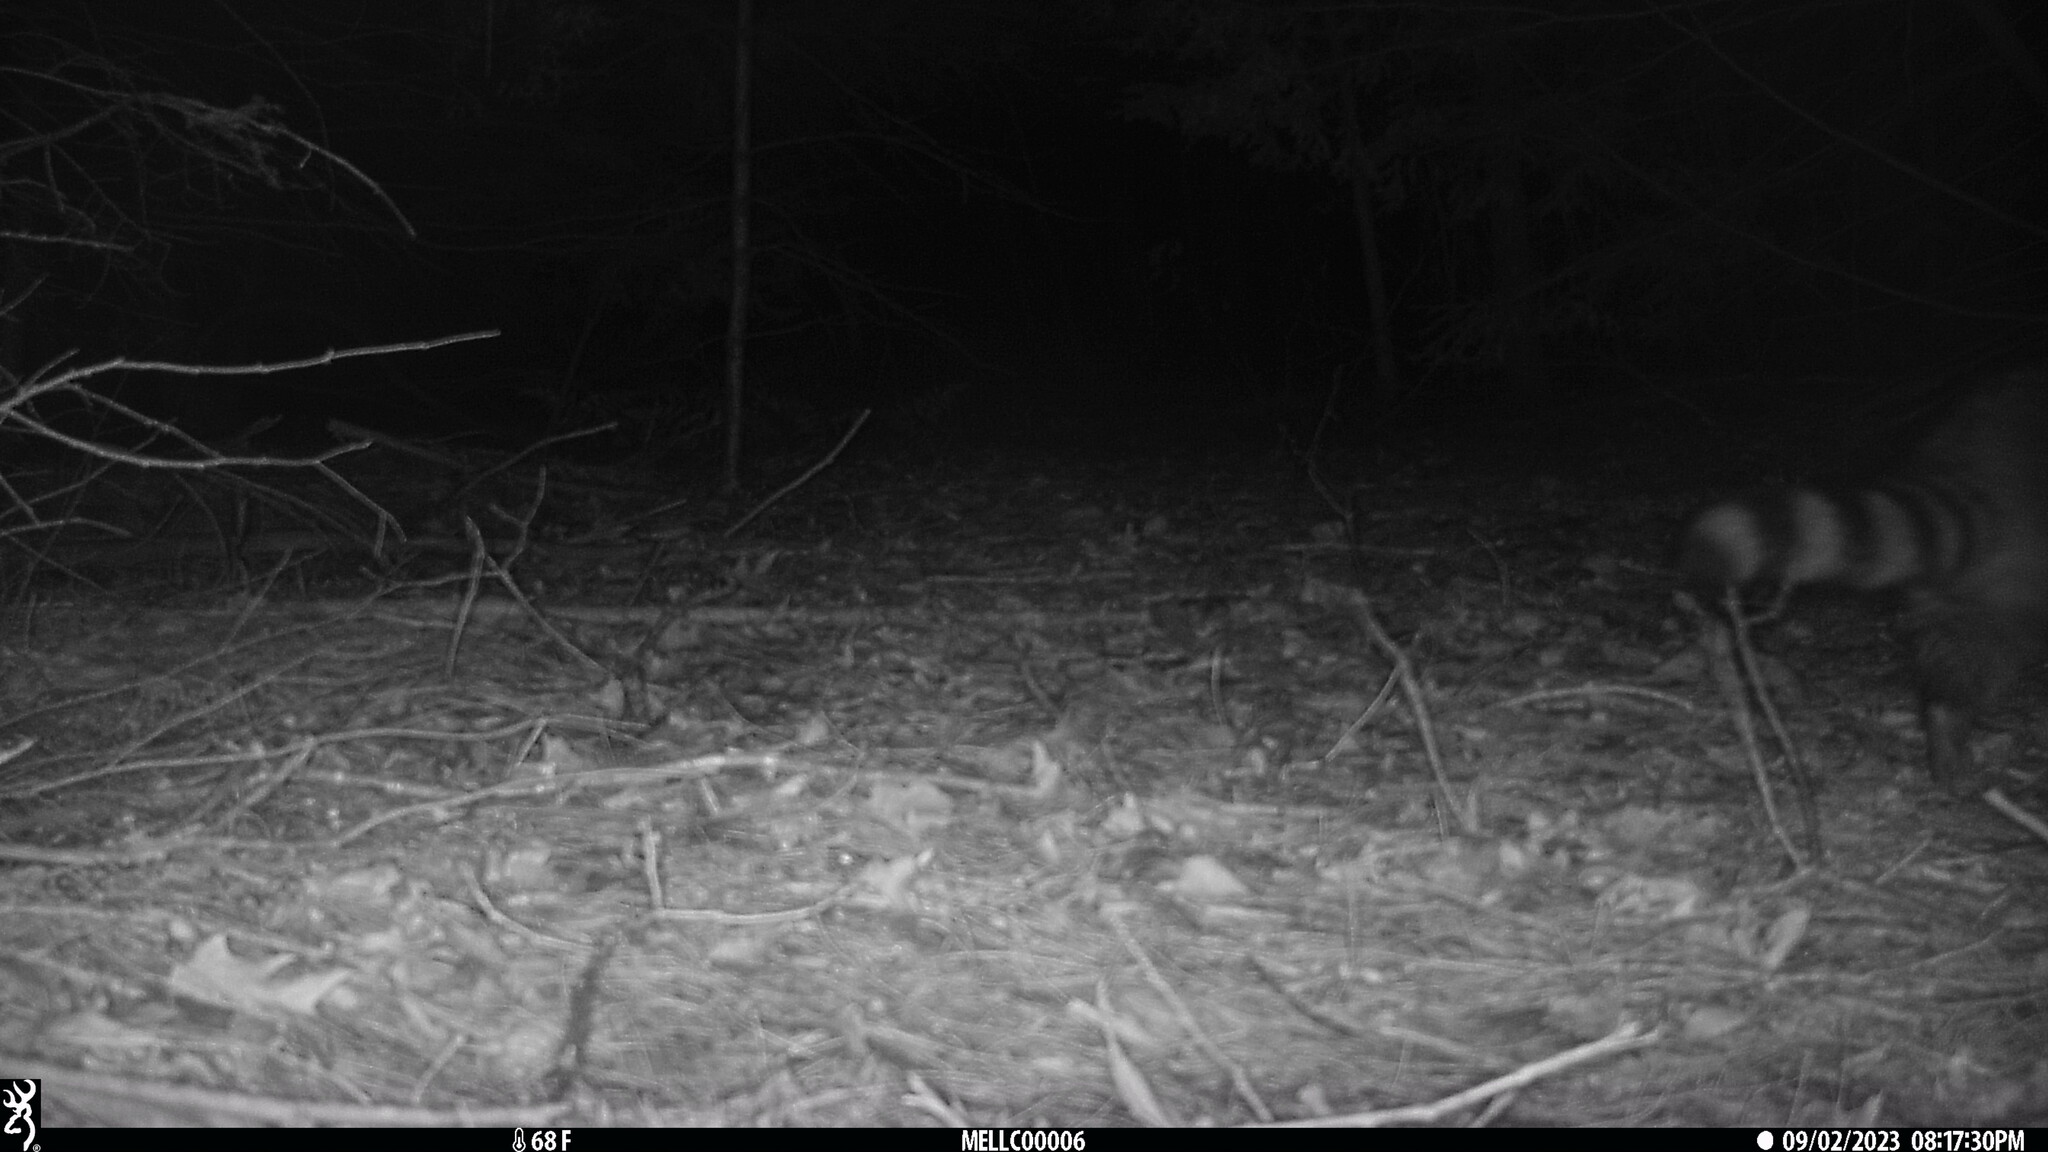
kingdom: Animalia
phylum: Chordata
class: Mammalia
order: Carnivora
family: Procyonidae
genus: Procyon
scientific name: Procyon lotor
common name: Raccoon
